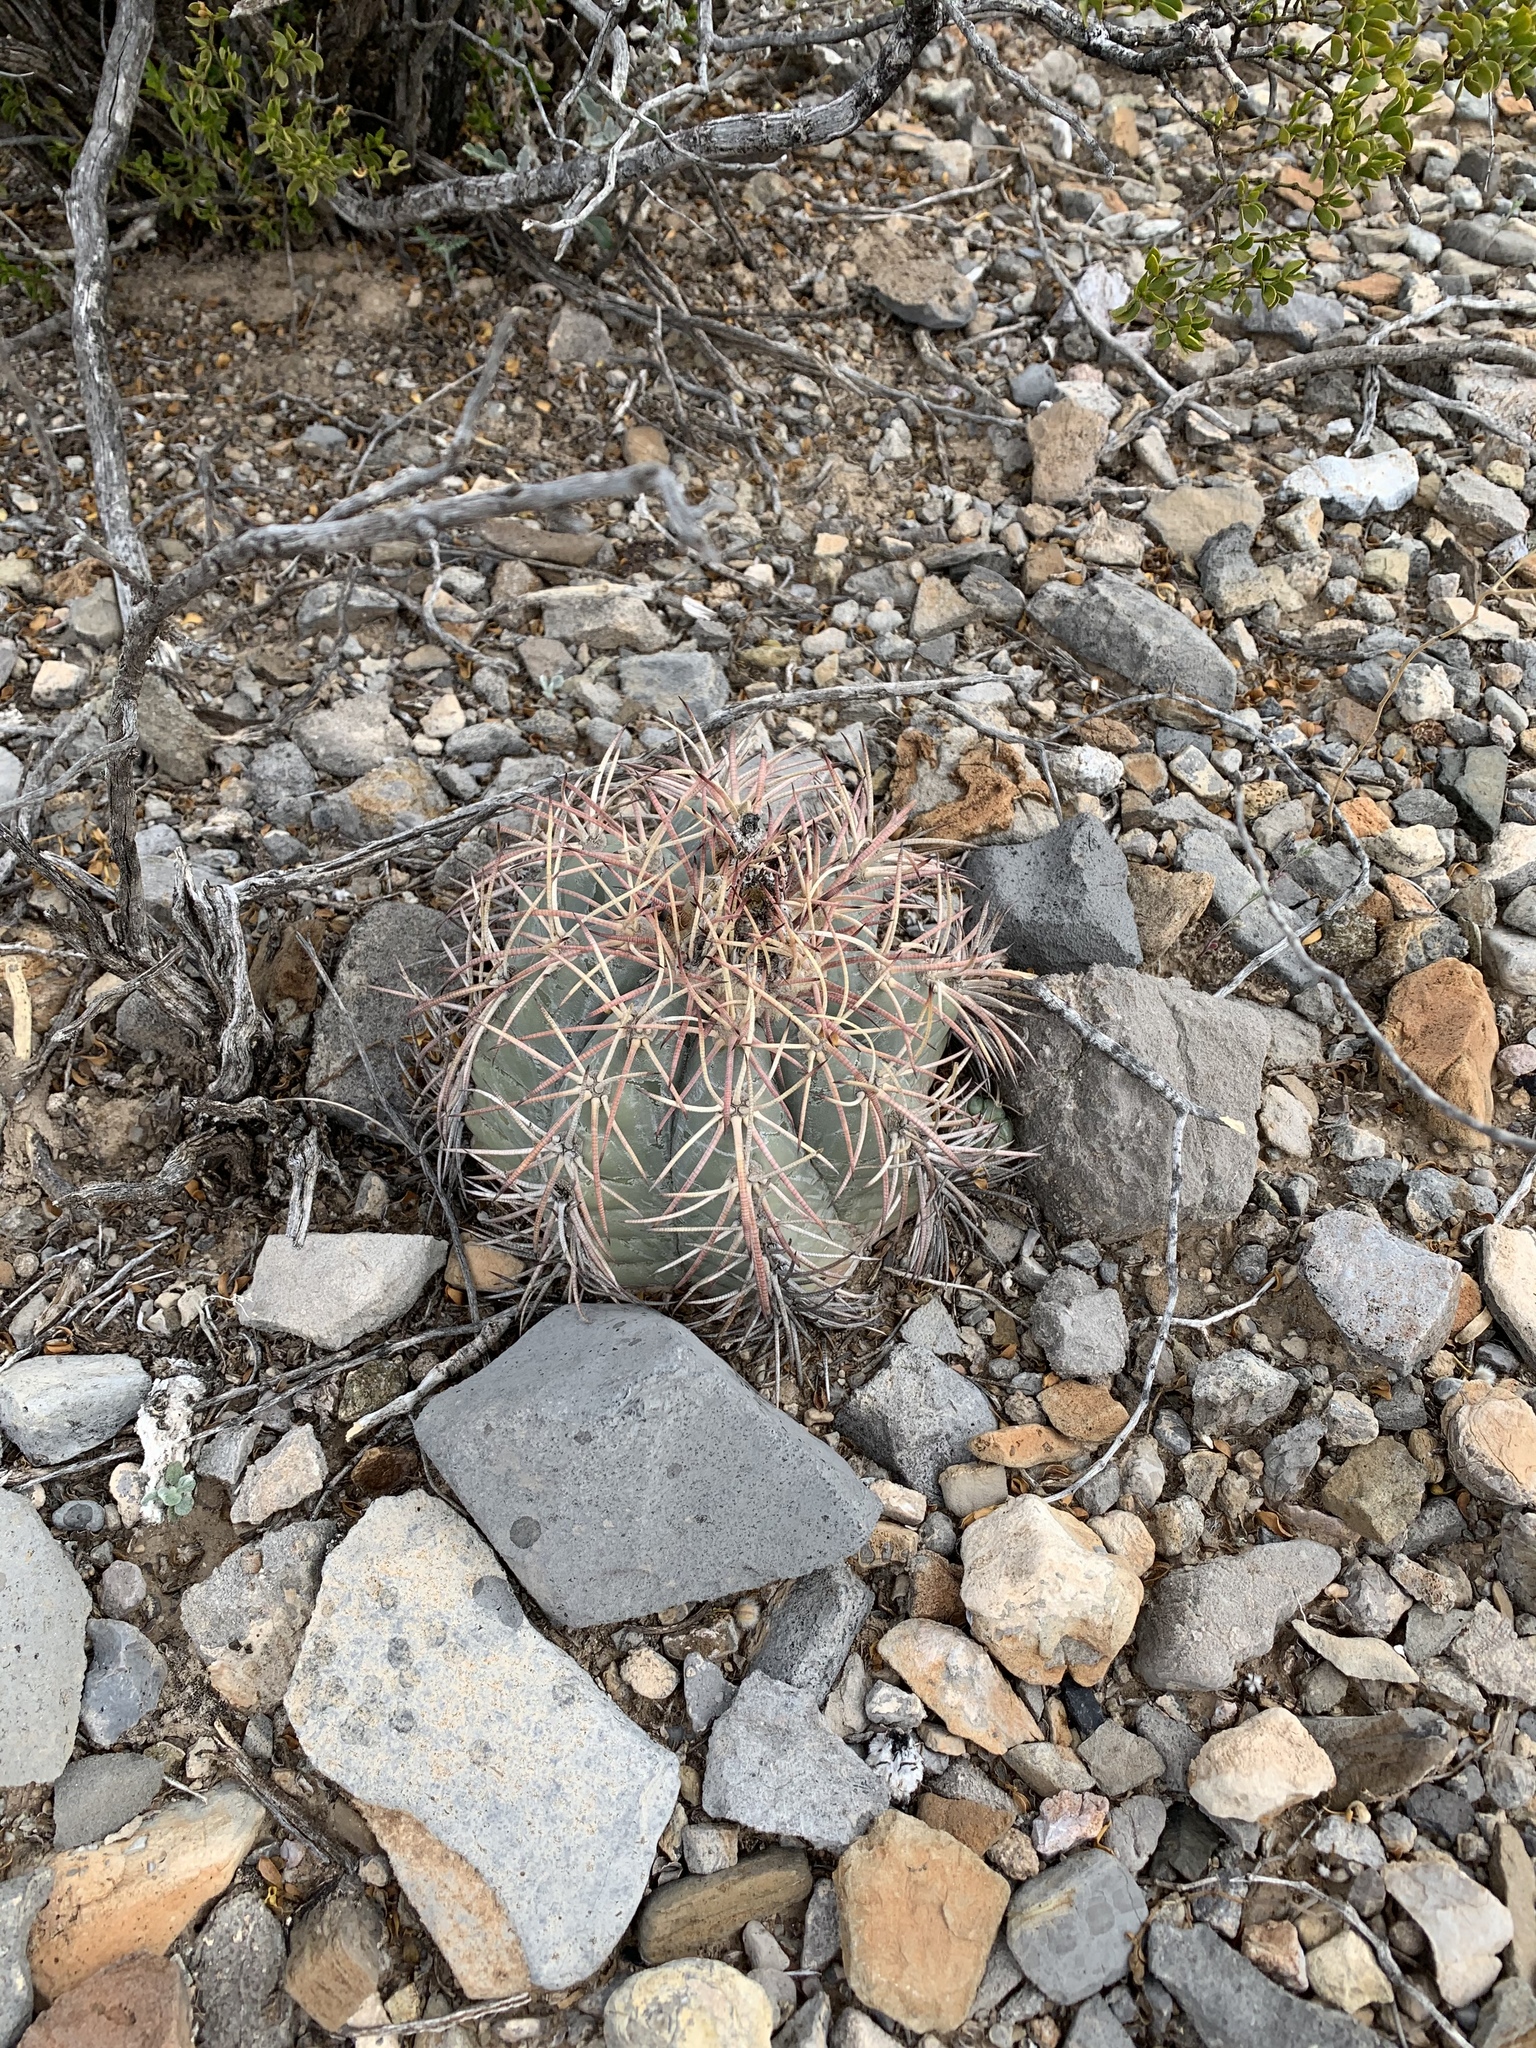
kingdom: Plantae
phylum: Tracheophyta
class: Magnoliopsida
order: Caryophyllales
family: Cactaceae
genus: Echinocactus
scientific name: Echinocactus horizonthalonius
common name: Devilshead
